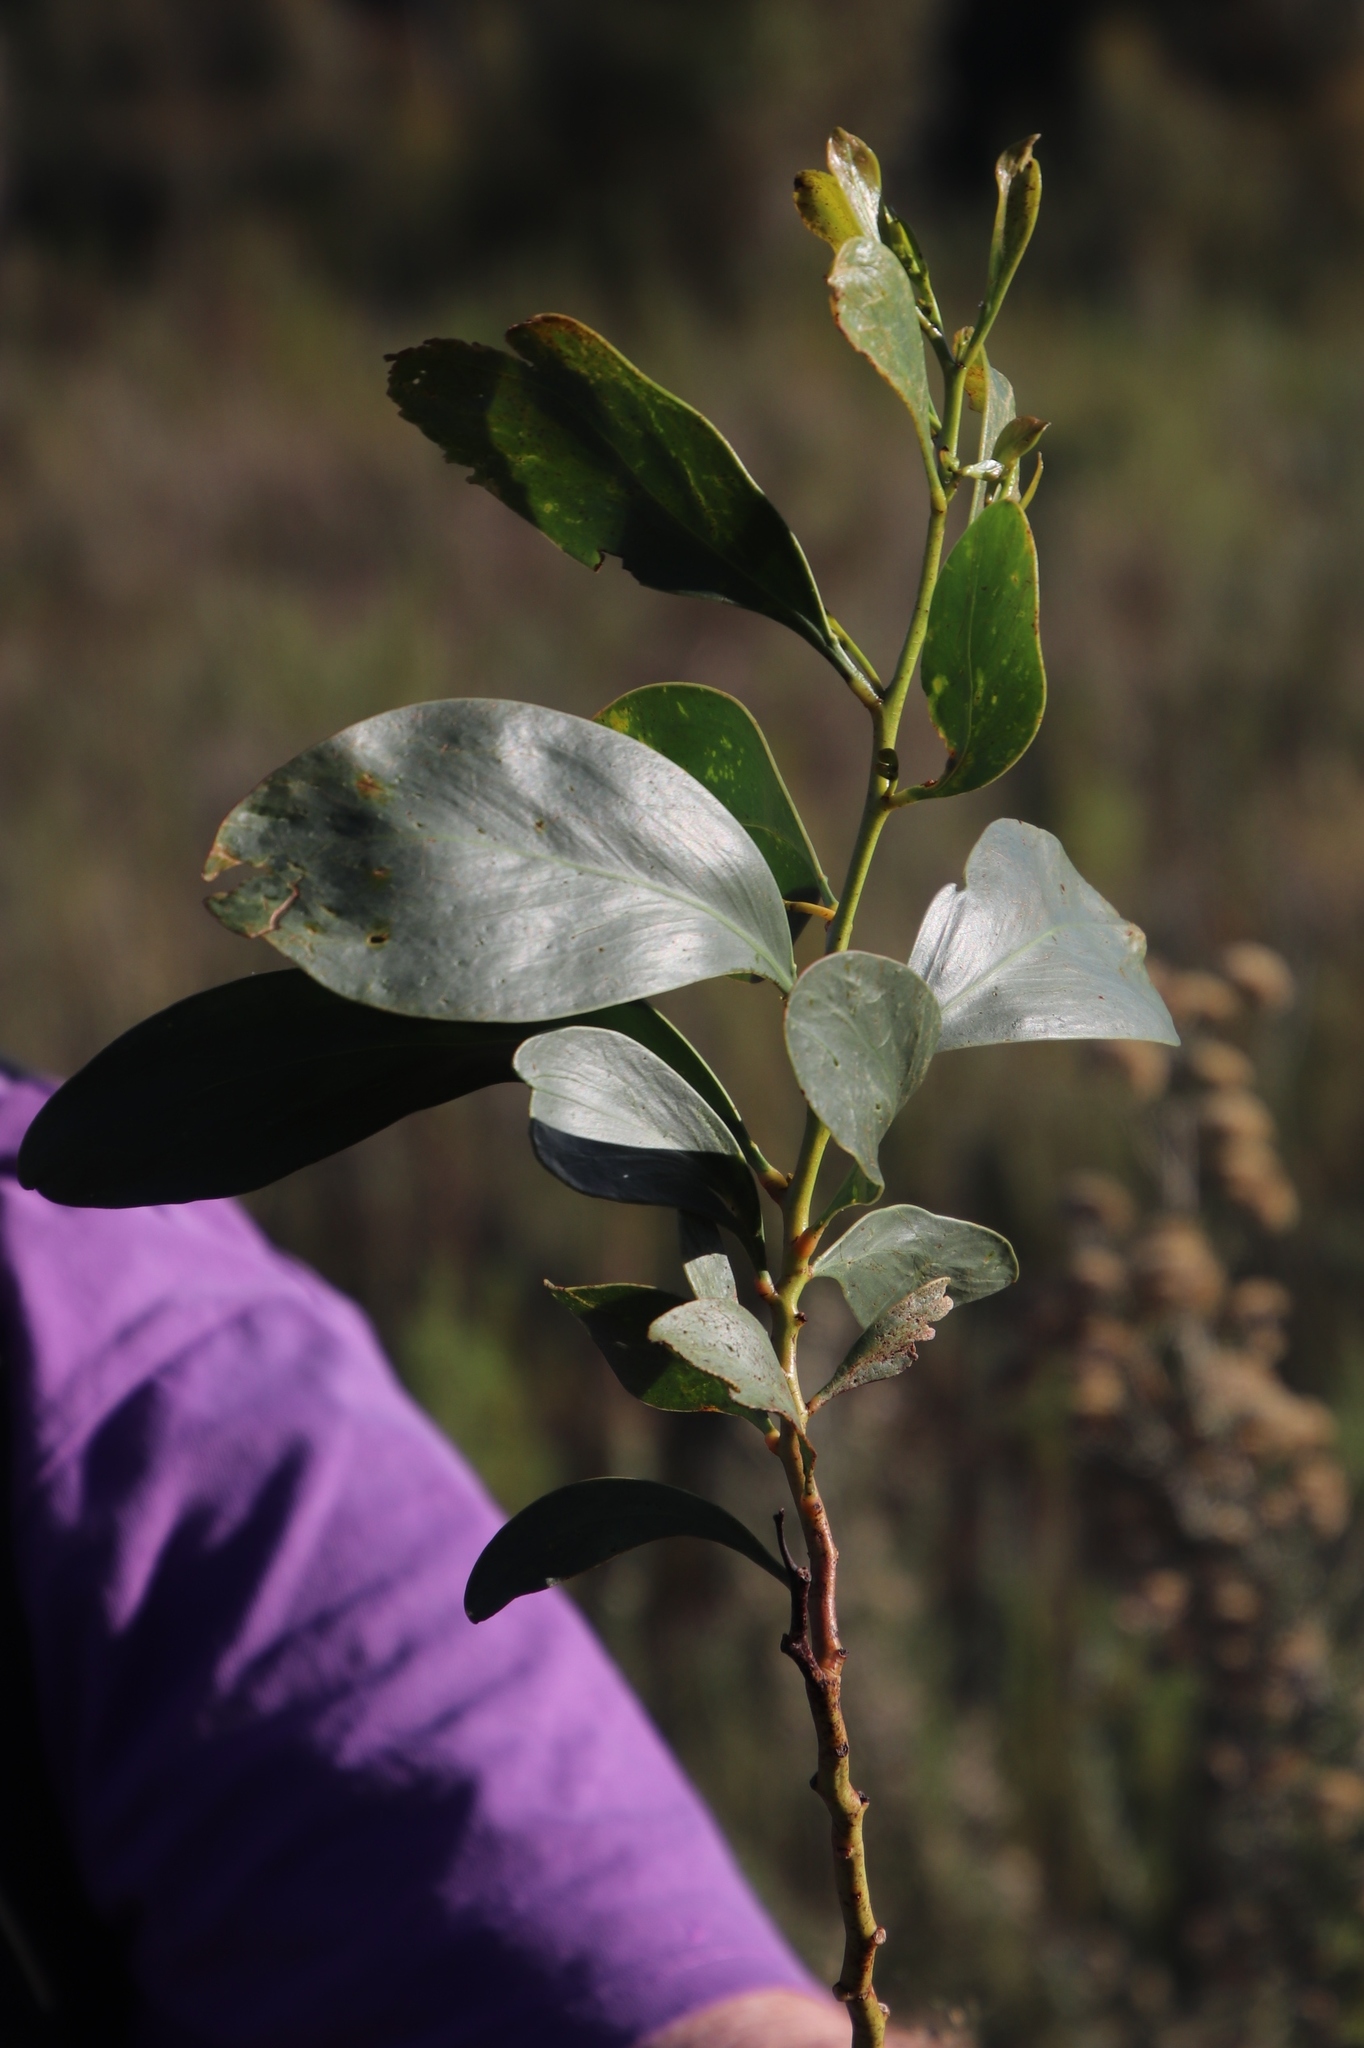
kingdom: Plantae
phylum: Tracheophyta
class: Magnoliopsida
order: Fabales
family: Fabaceae
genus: Acacia
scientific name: Acacia pycnantha
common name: Golden wattle
